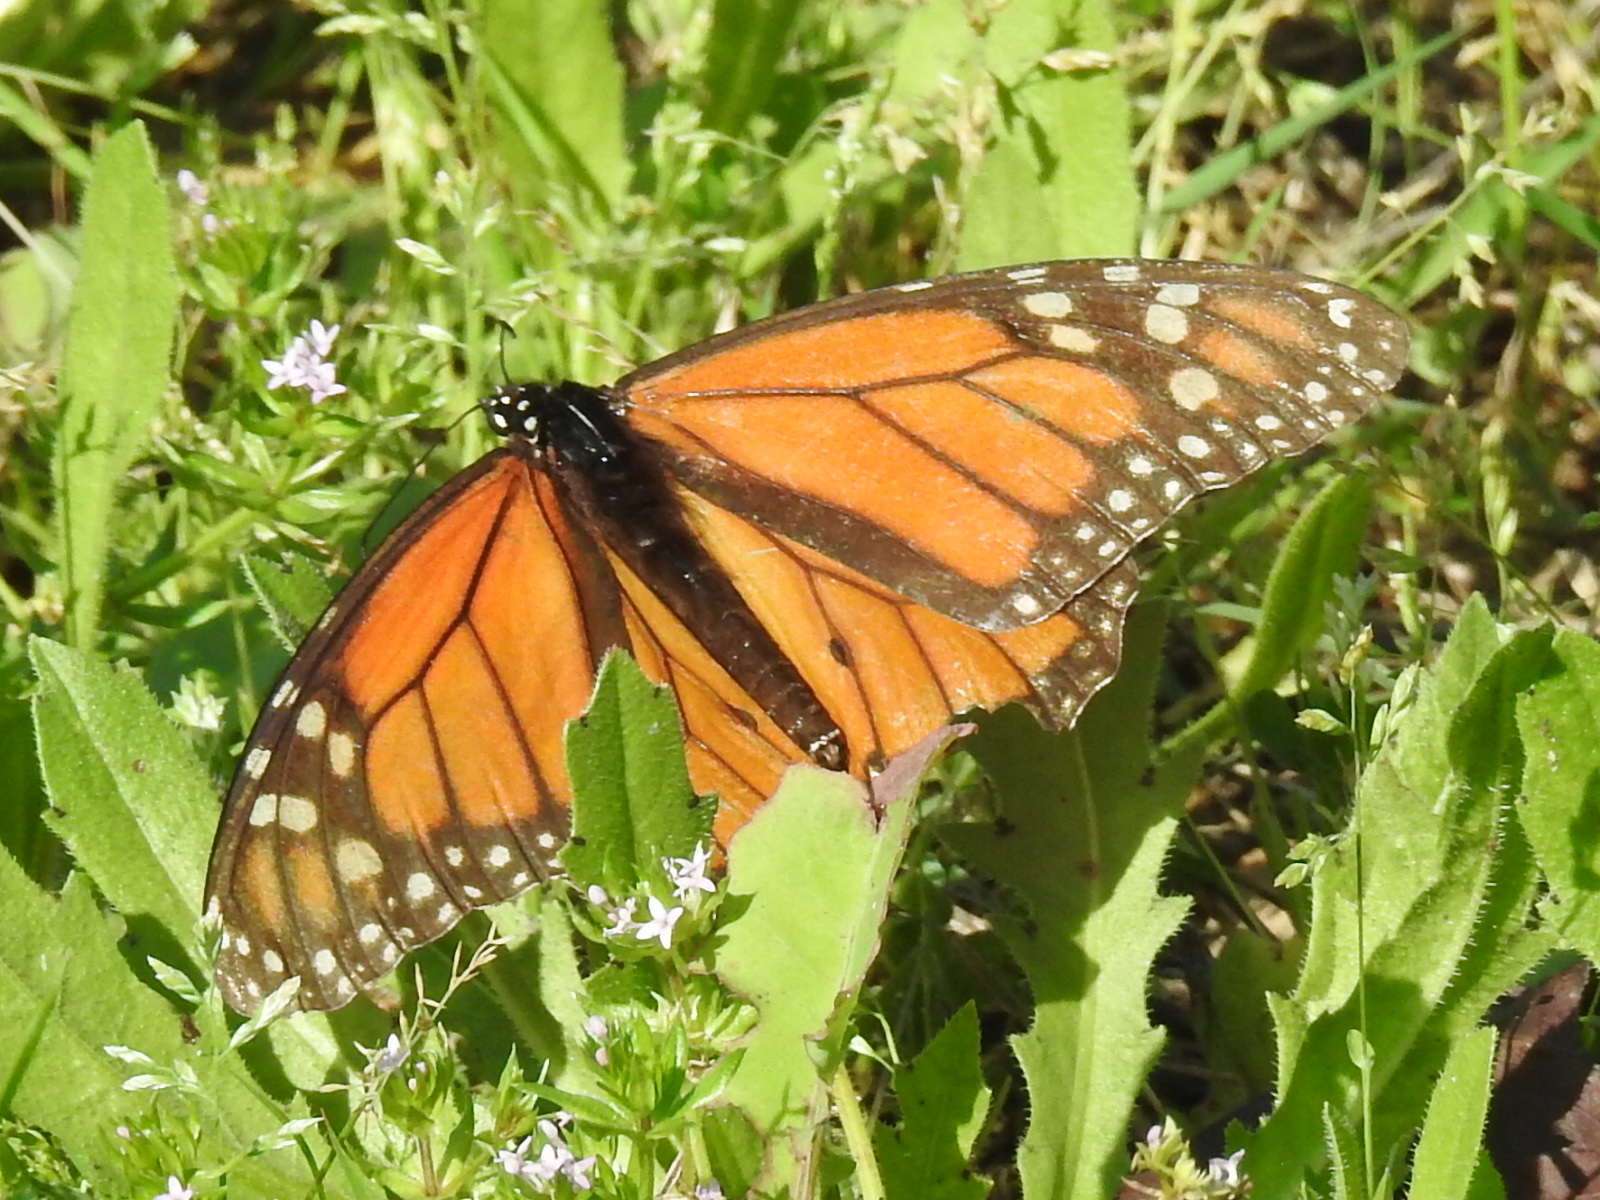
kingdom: Animalia
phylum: Arthropoda
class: Insecta
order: Lepidoptera
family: Nymphalidae
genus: Danaus
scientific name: Danaus plexippus
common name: Monarch
